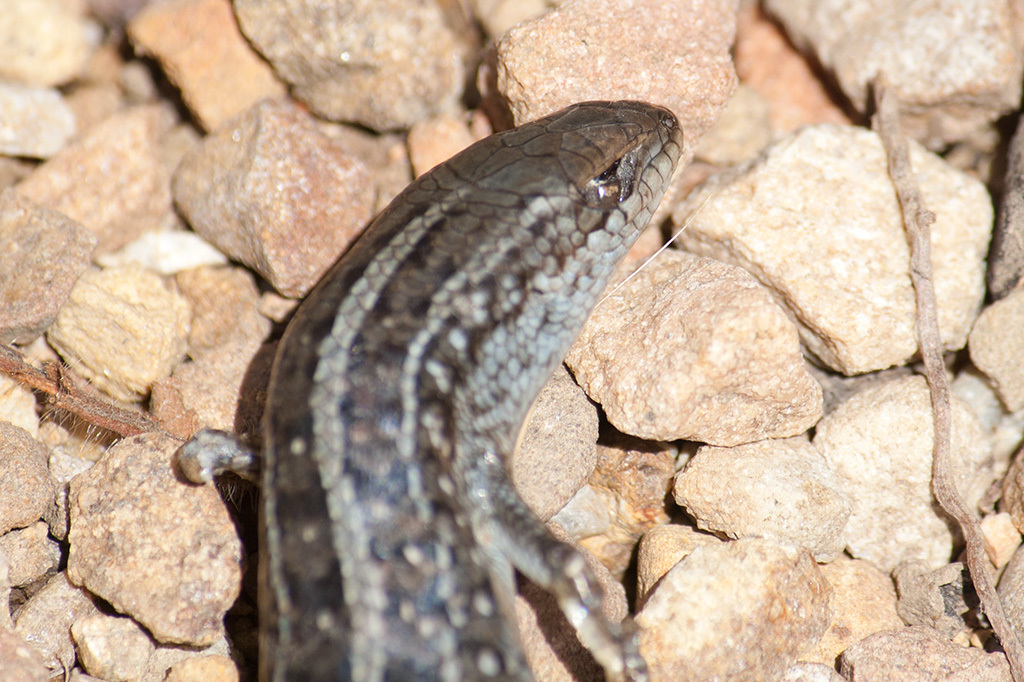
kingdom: Animalia
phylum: Chordata
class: Squamata
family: Scincidae
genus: Trachylepis
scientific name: Trachylepis capensis
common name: Cape skink
